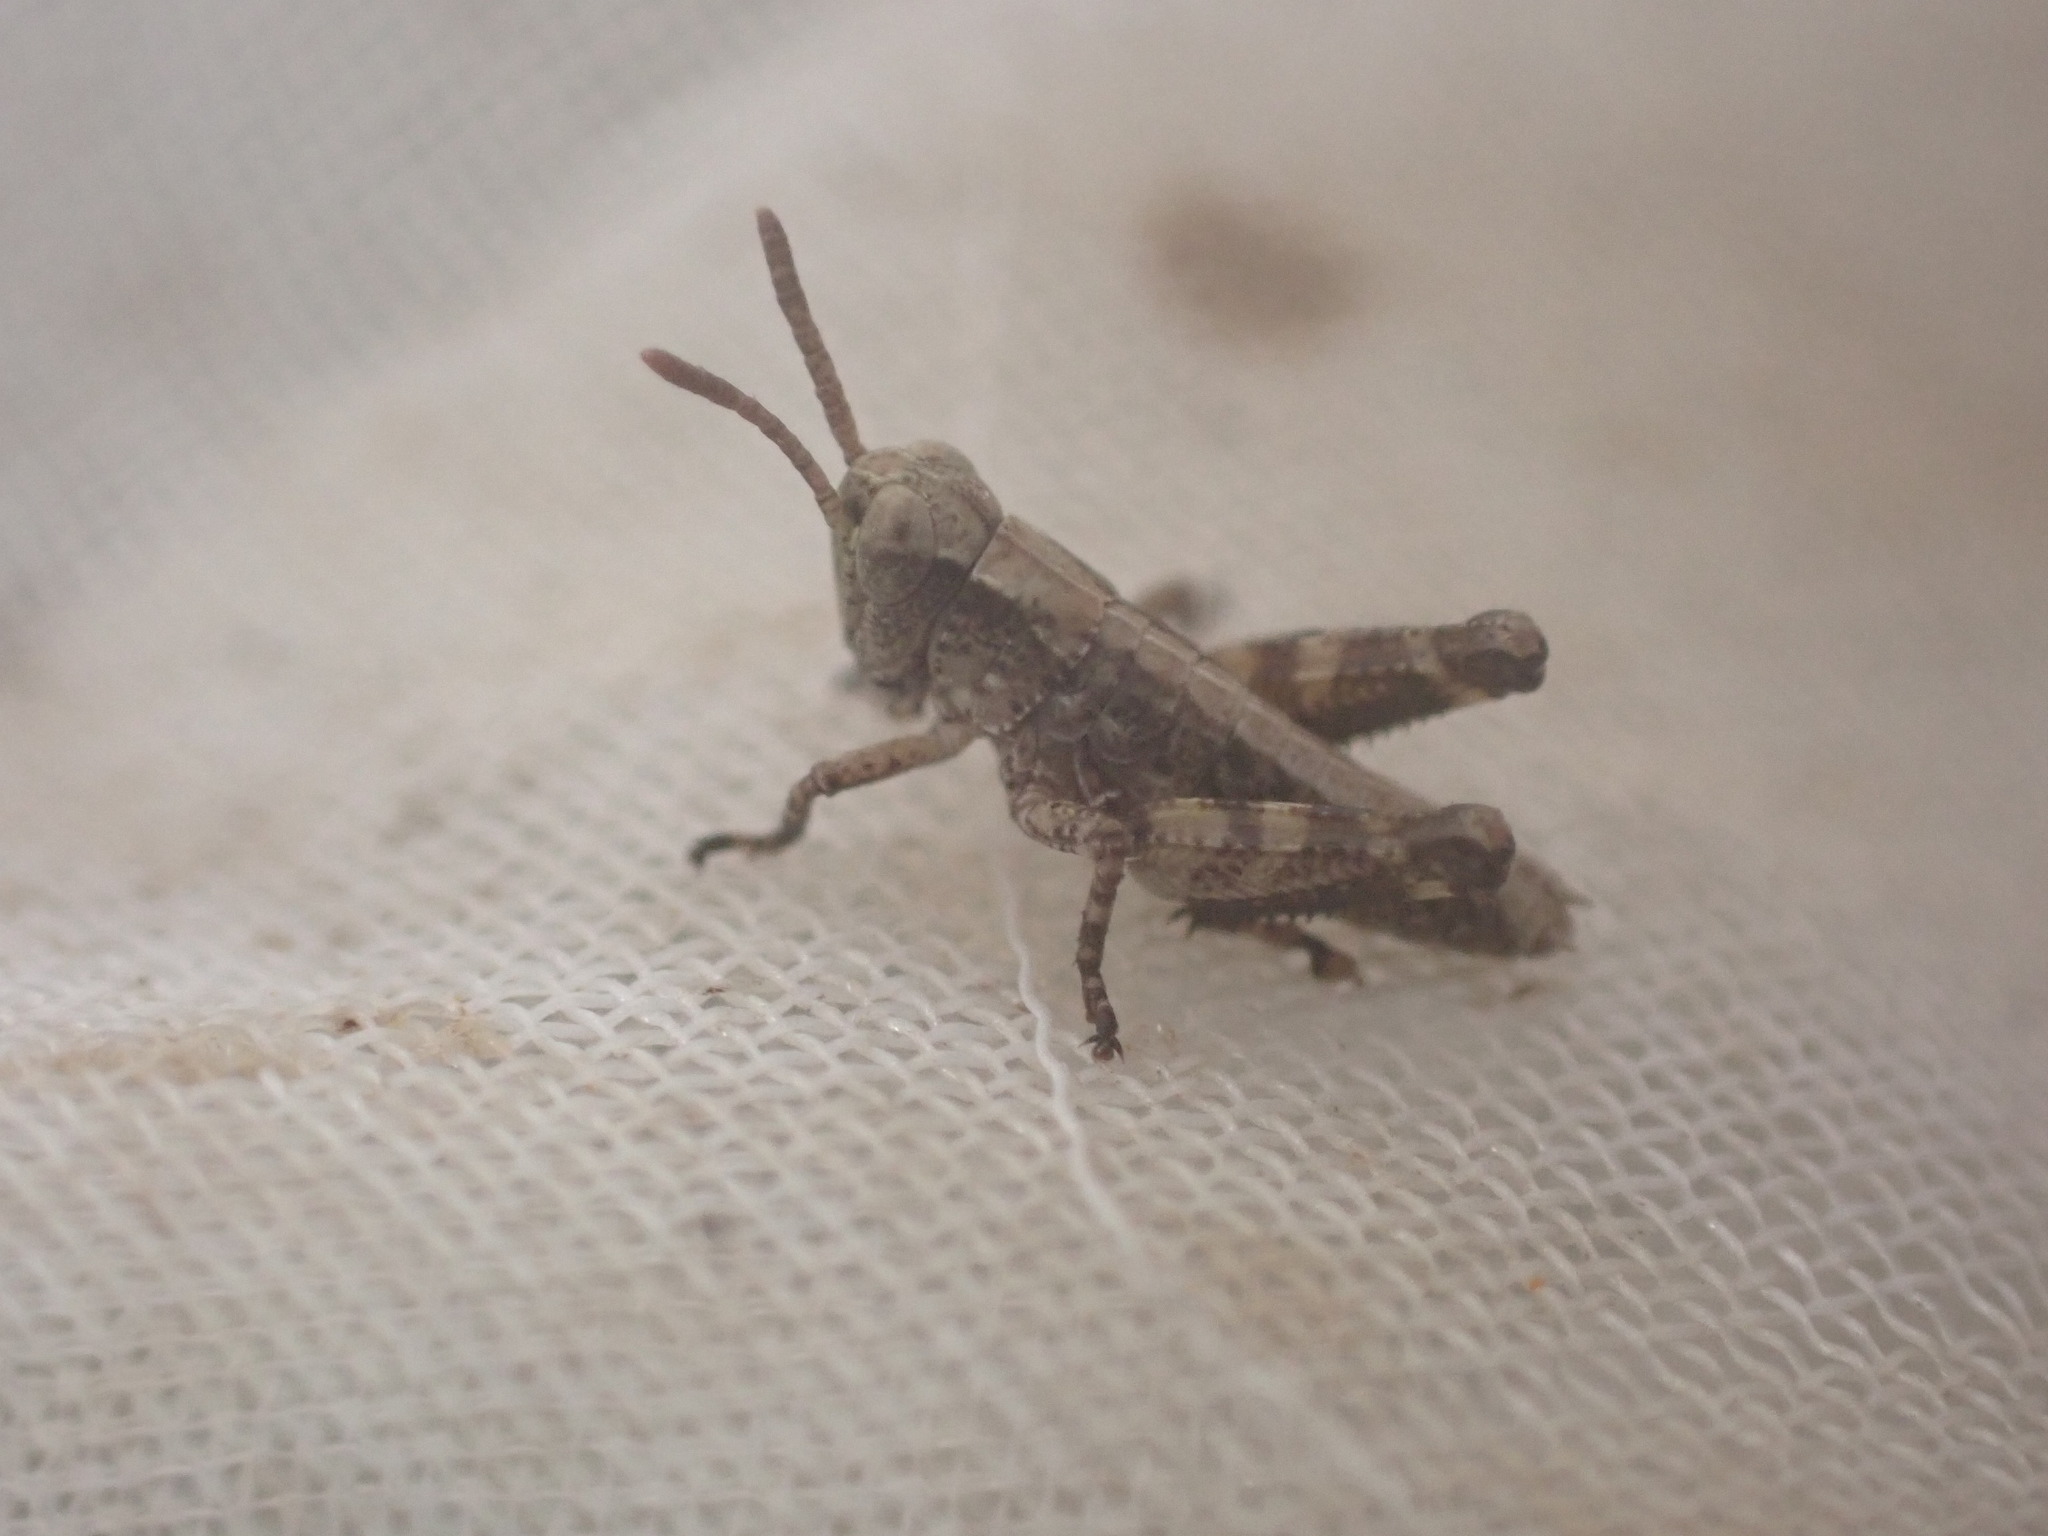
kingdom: Animalia
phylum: Arthropoda
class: Insecta
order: Orthoptera
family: Acrididae
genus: Phaulacridium
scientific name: Phaulacridium marginale
